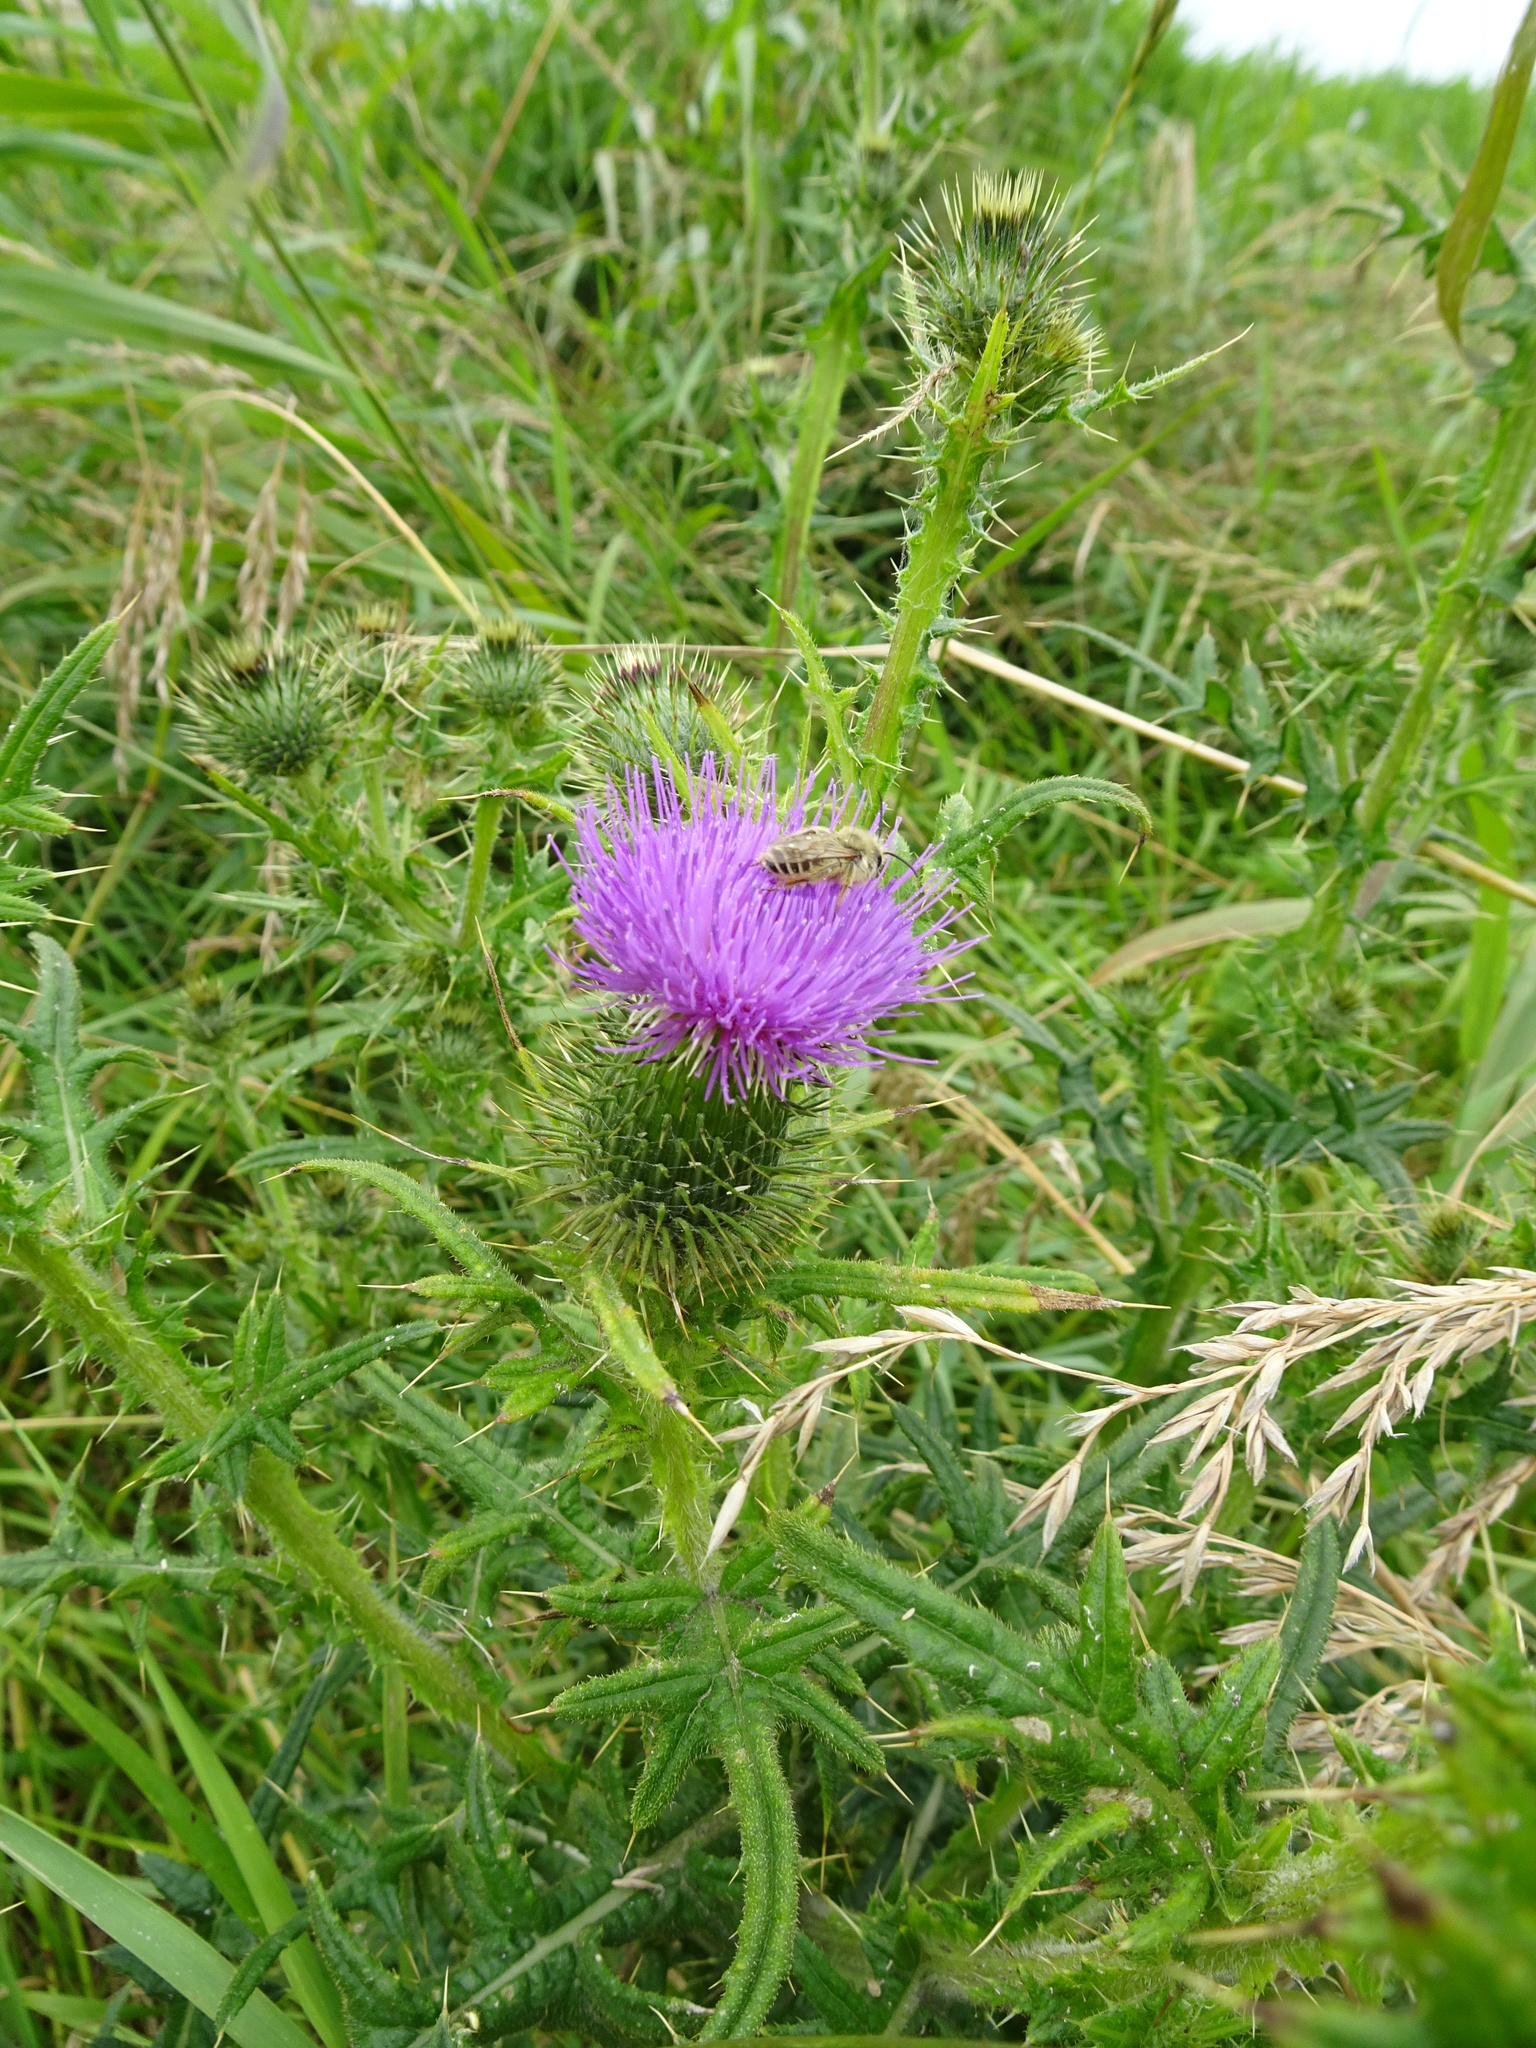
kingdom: Plantae
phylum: Tracheophyta
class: Magnoliopsida
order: Asterales
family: Asteraceae
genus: Cirsium
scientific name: Cirsium vulgare
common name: Bull thistle
